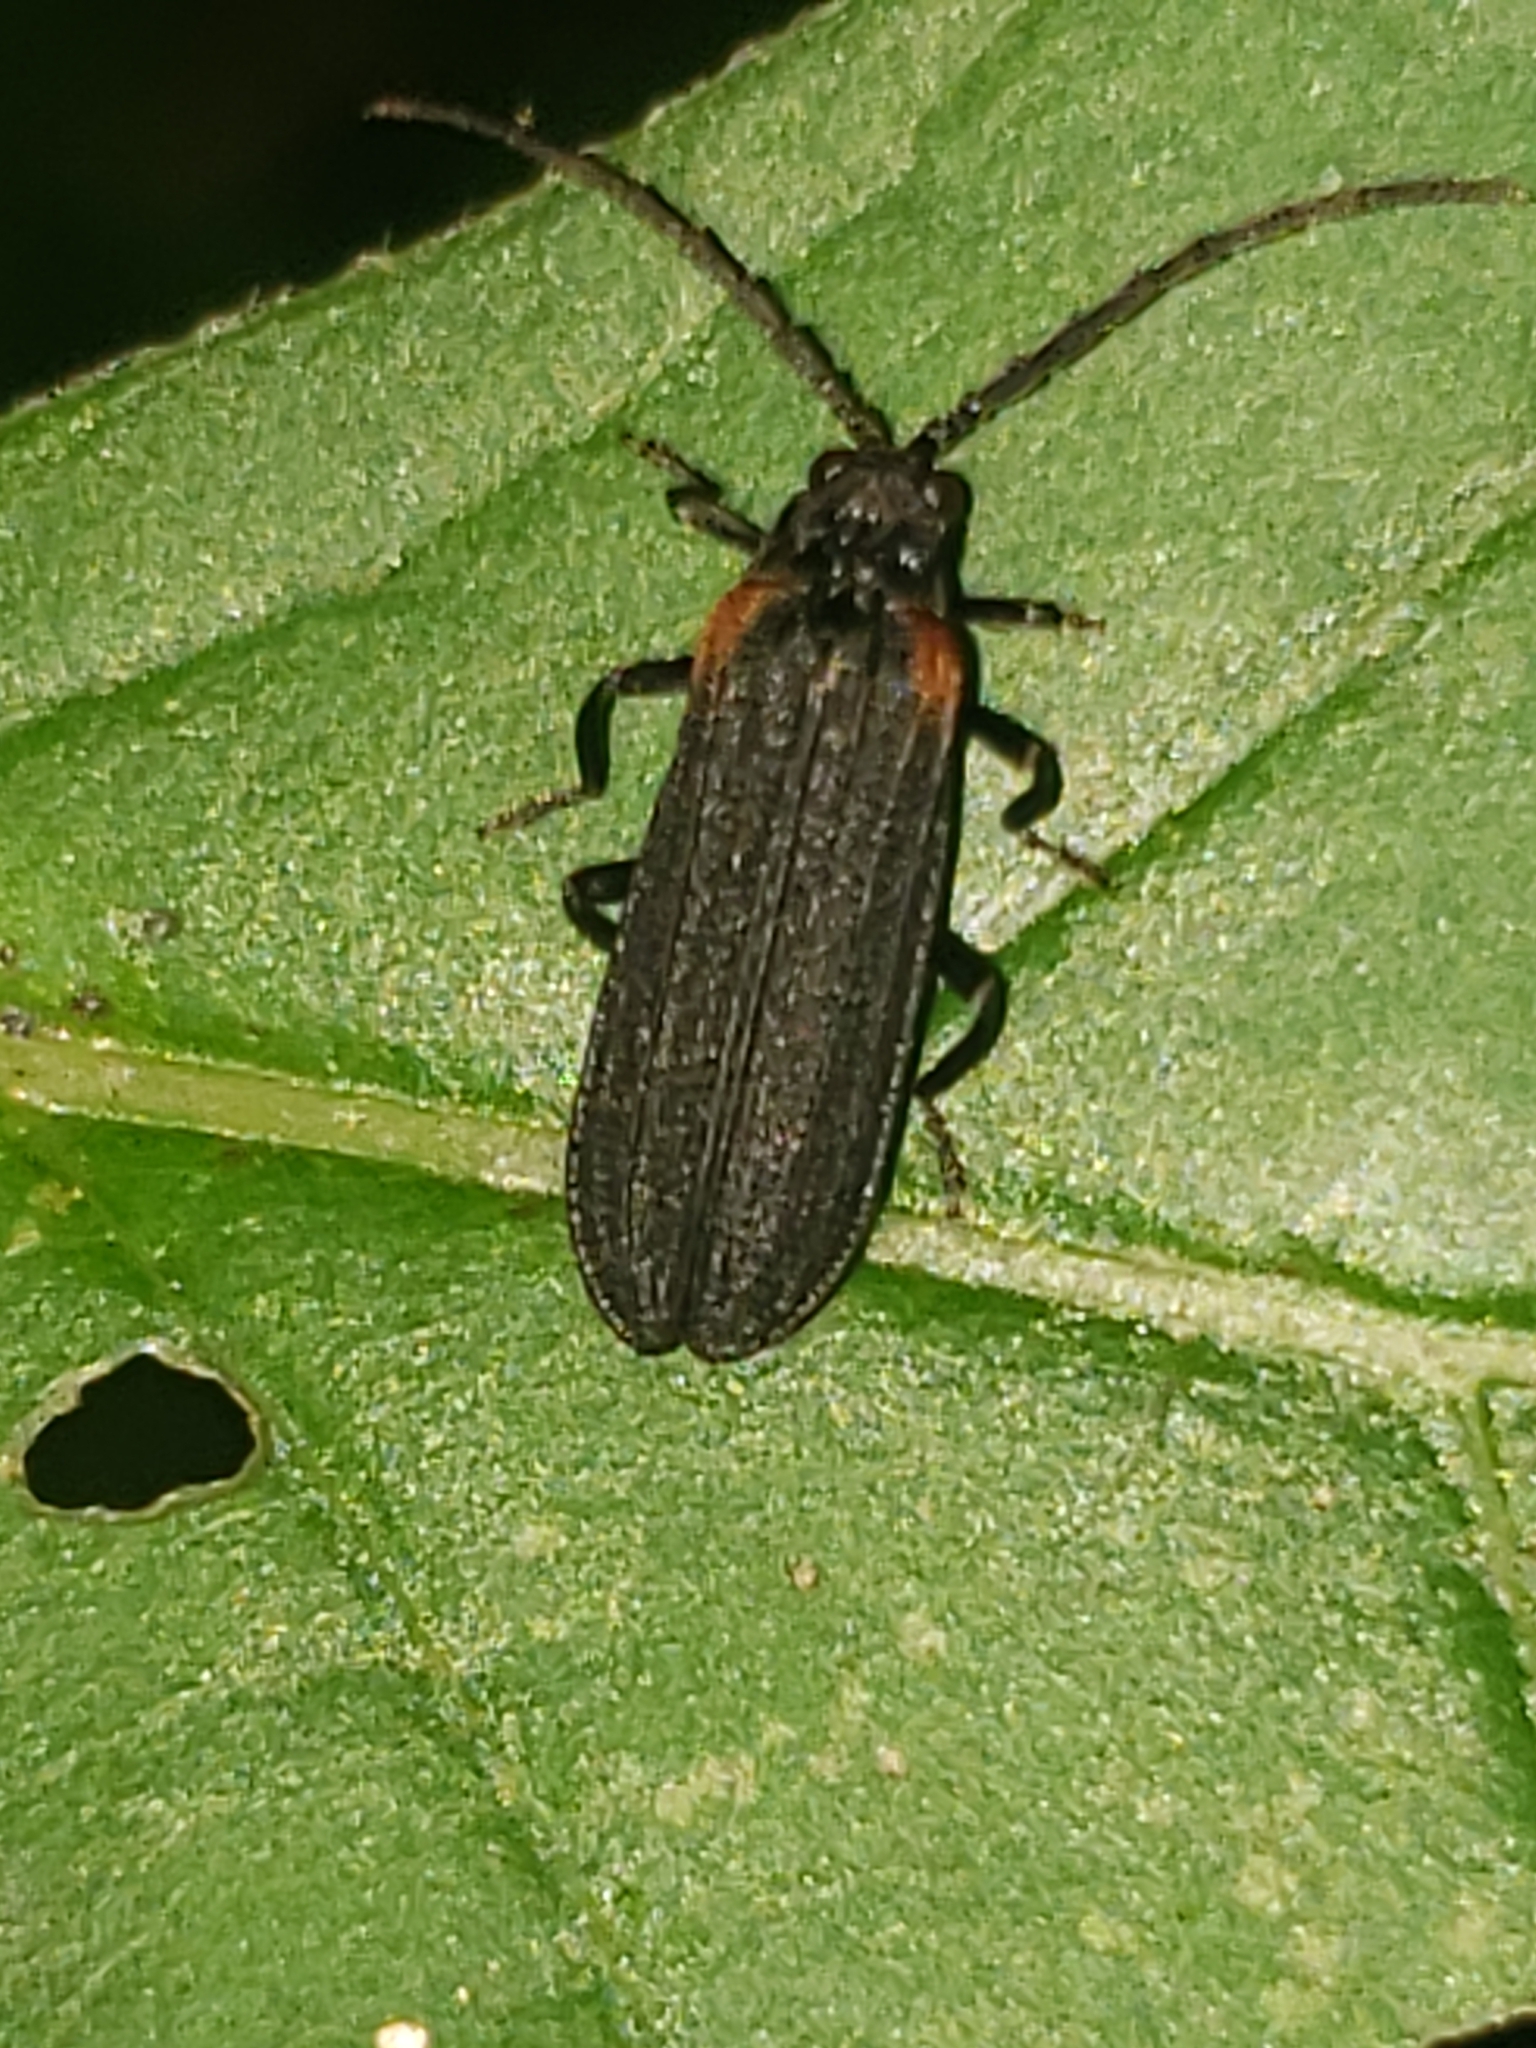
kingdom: Animalia
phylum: Arthropoda
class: Insecta
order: Coleoptera
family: Lycidae
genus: Greenarus
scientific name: Greenarus thoracicus
